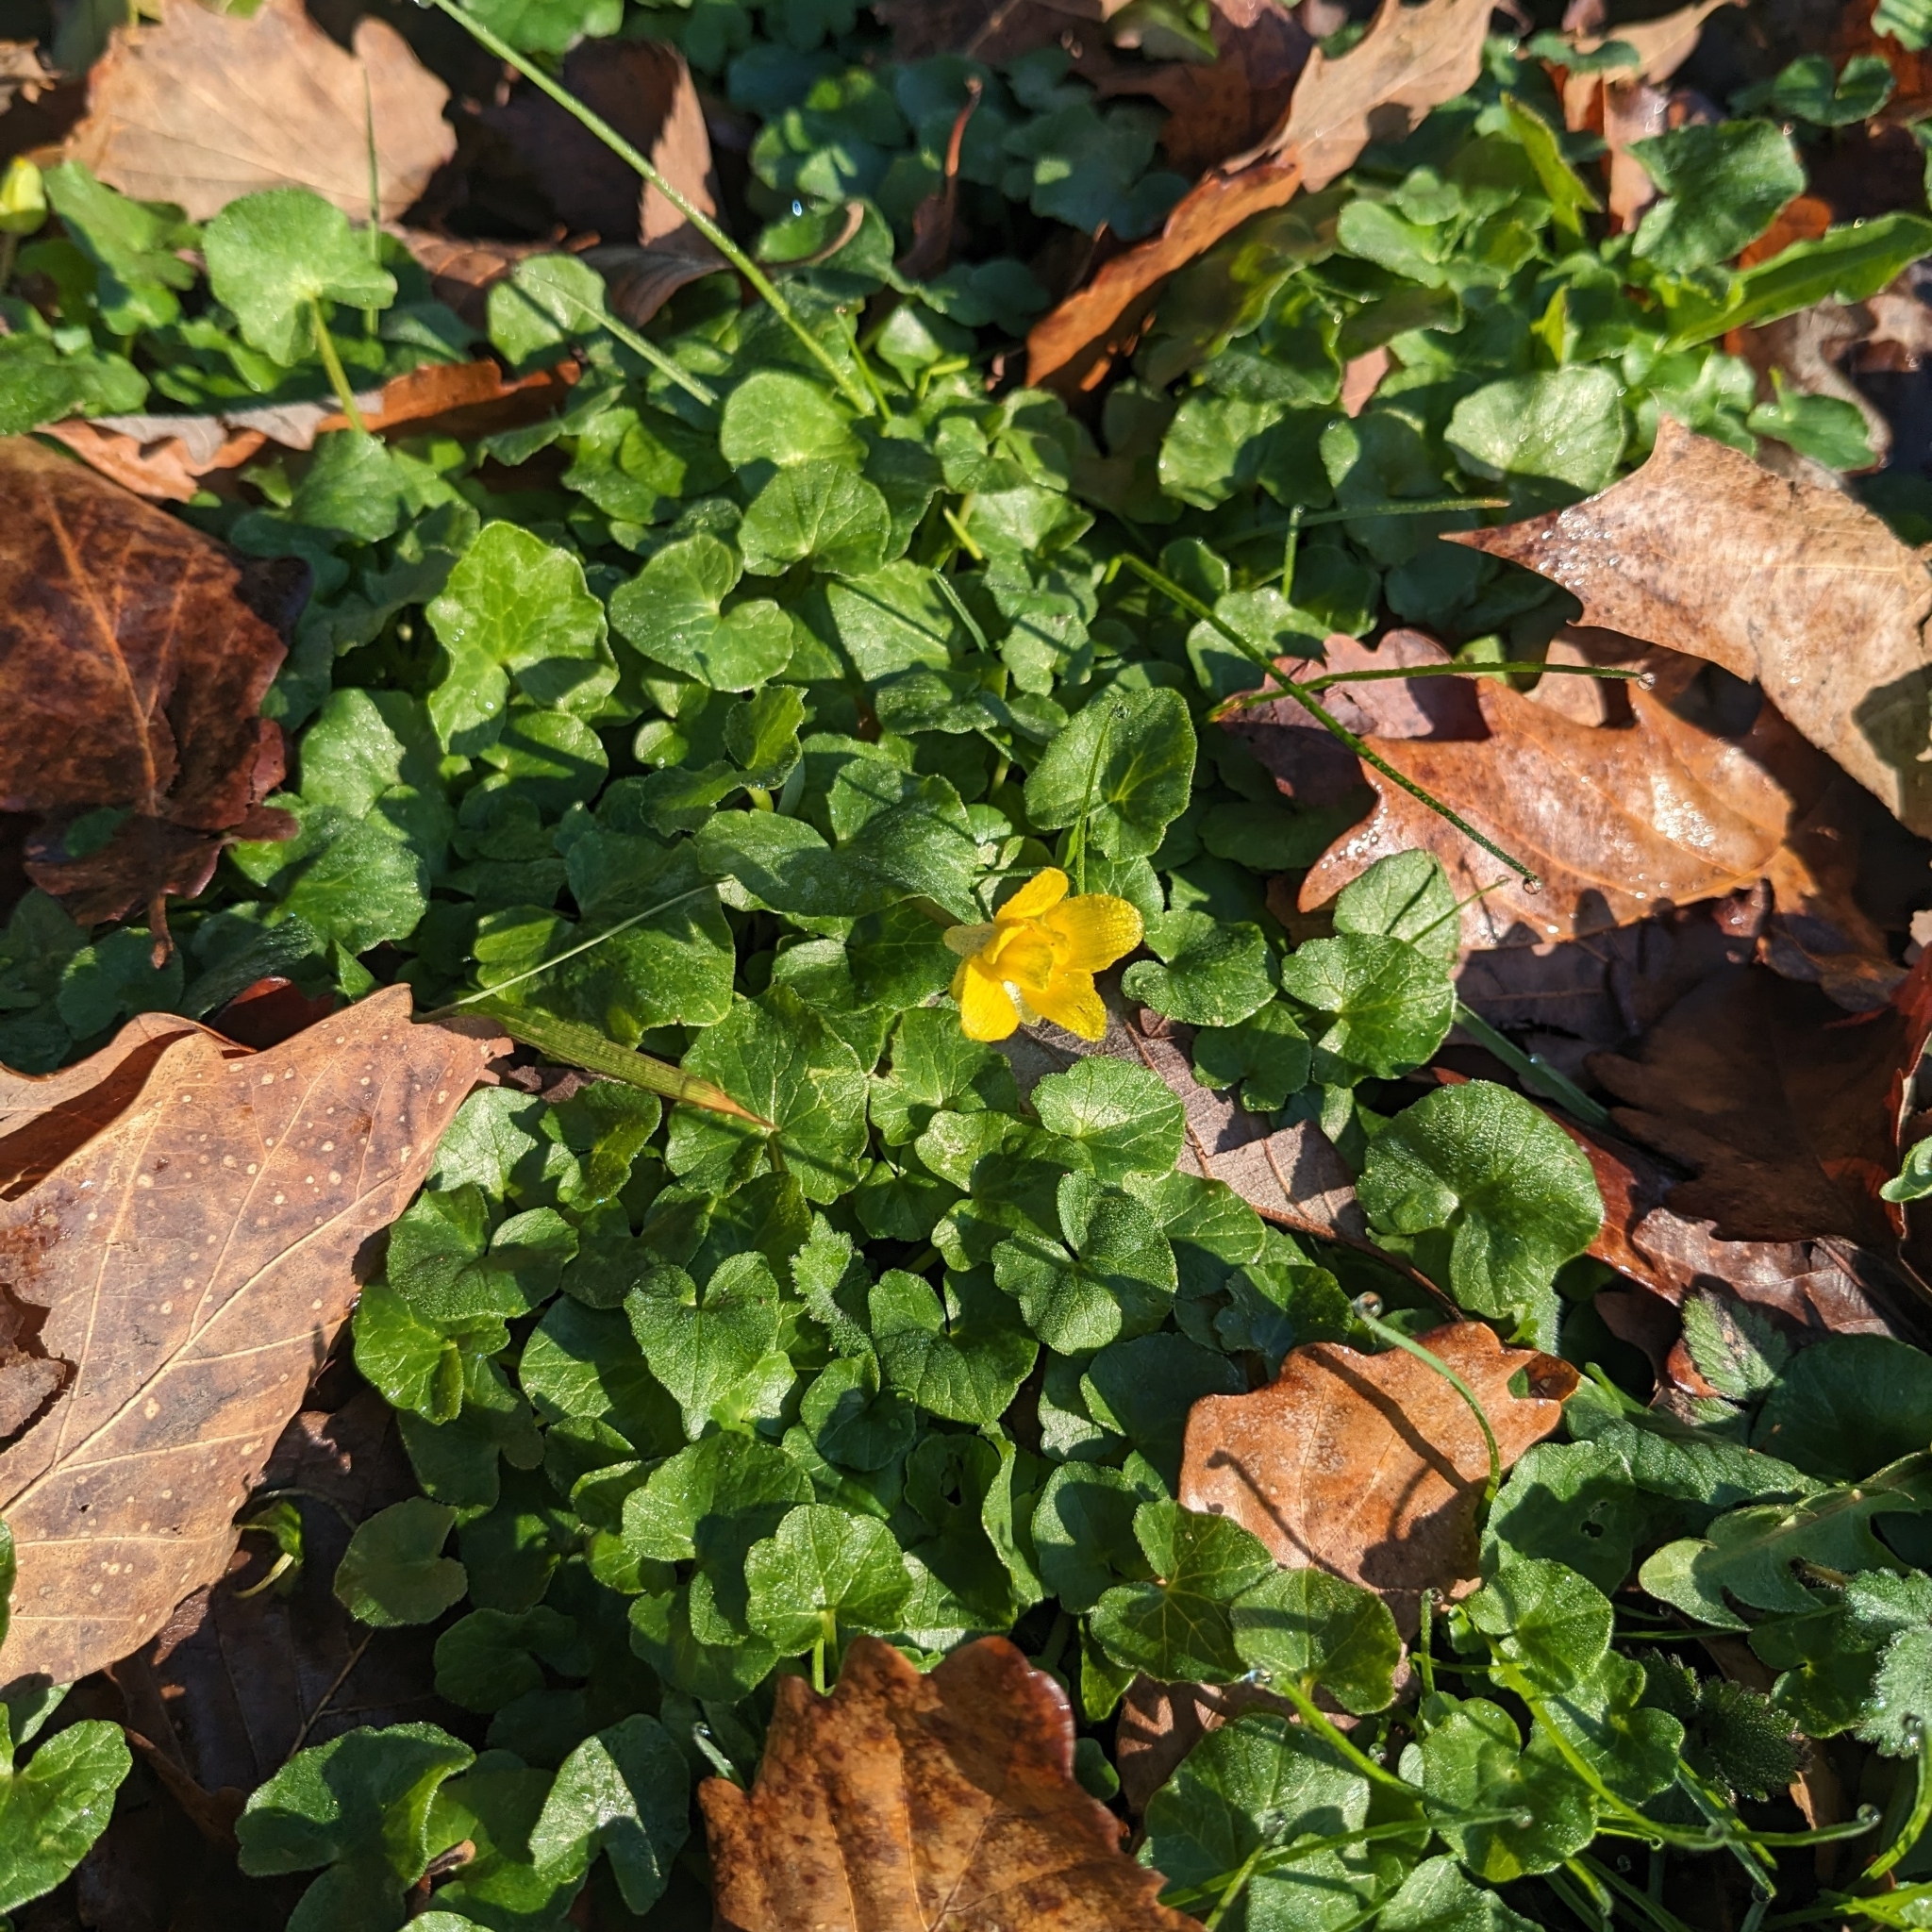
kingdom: Plantae
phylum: Tracheophyta
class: Magnoliopsida
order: Ranunculales
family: Ranunculaceae
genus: Ficaria
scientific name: Ficaria verna
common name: Lesser celandine
